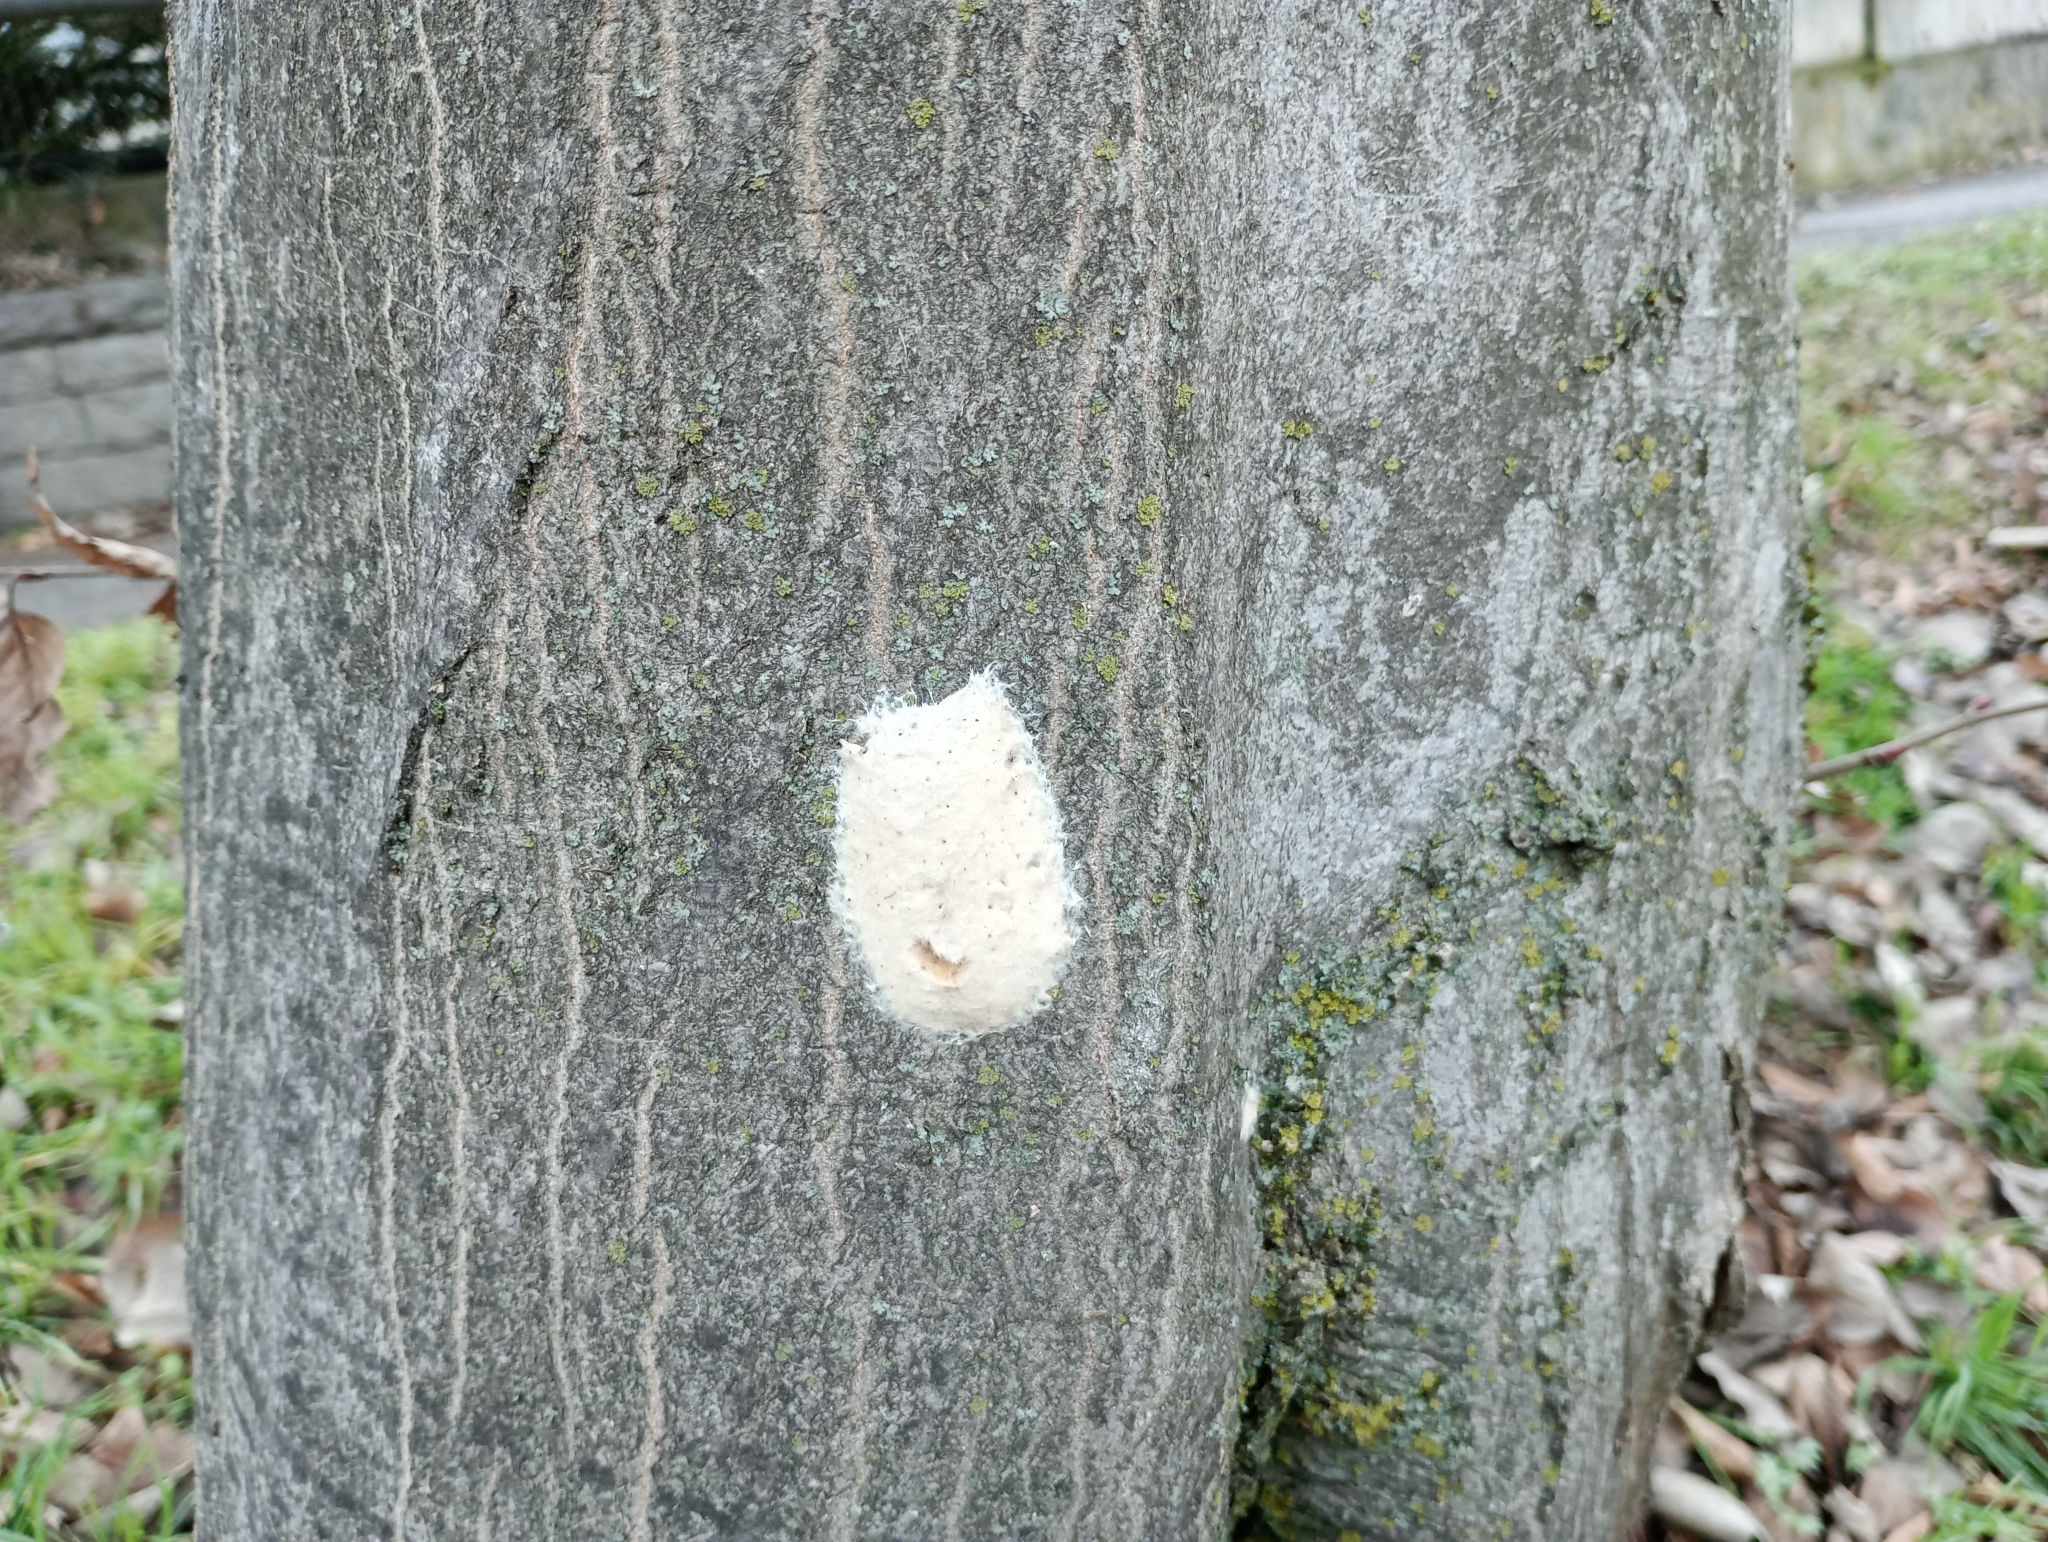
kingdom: Animalia
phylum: Arthropoda
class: Insecta
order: Lepidoptera
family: Erebidae
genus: Lymantria
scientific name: Lymantria dispar
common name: Gypsy moth
